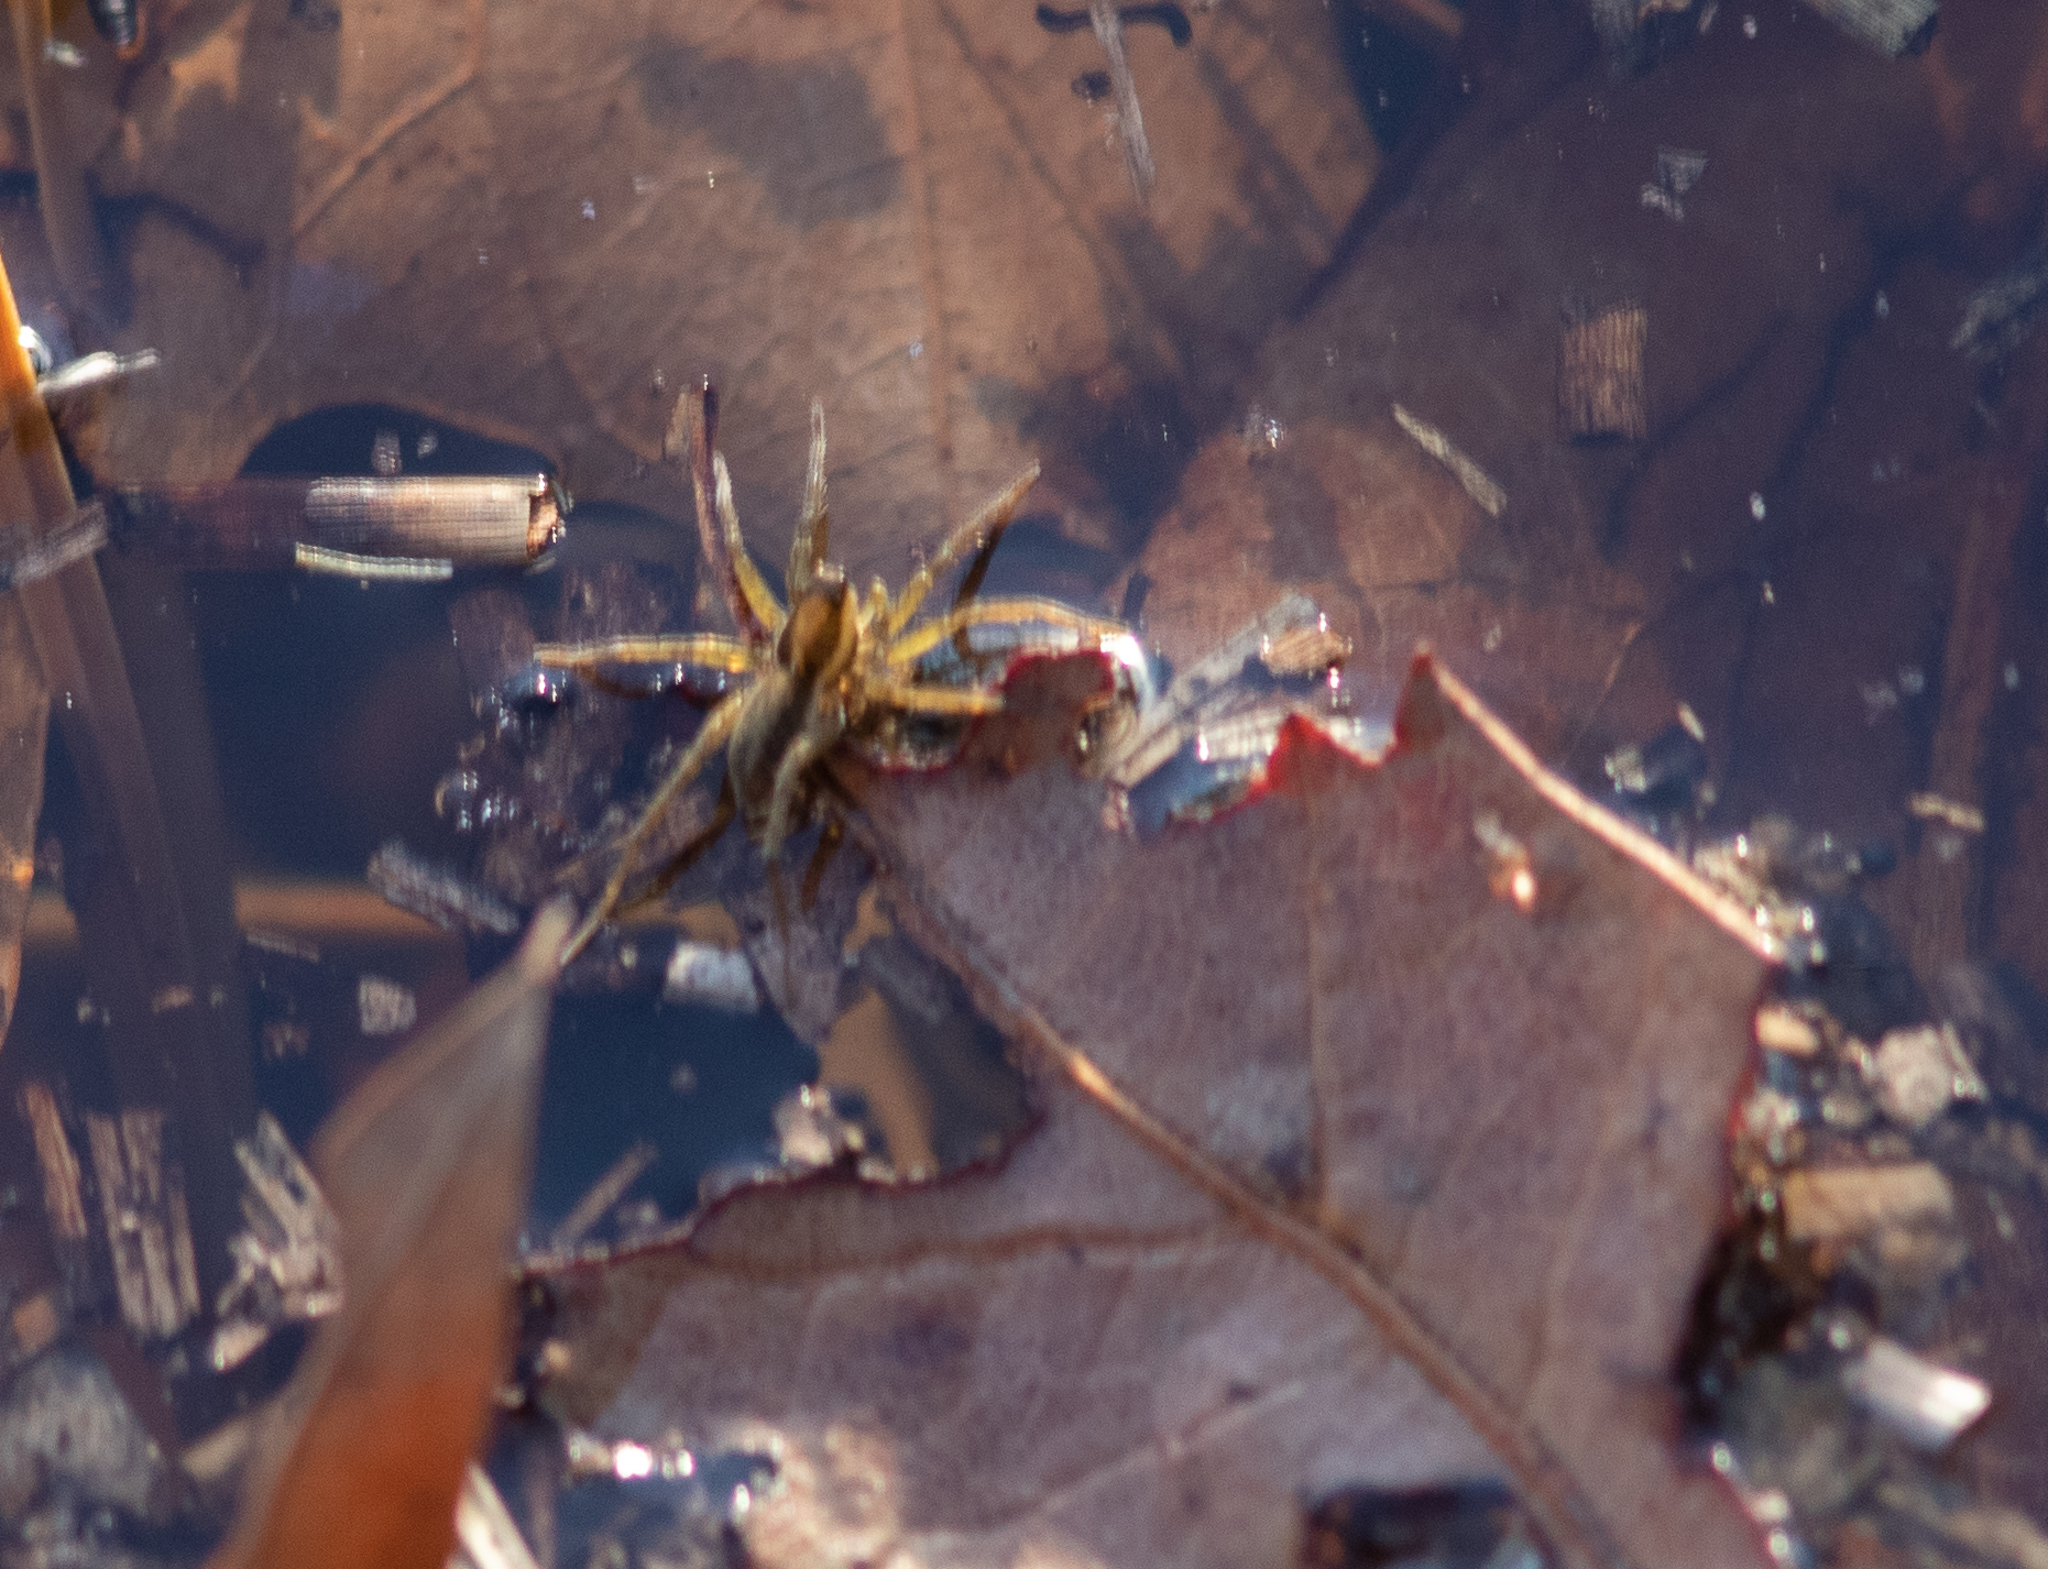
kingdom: Animalia
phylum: Arthropoda
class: Arachnida
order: Araneae
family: Lycosidae
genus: Pardosa
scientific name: Pardosa littoralis
